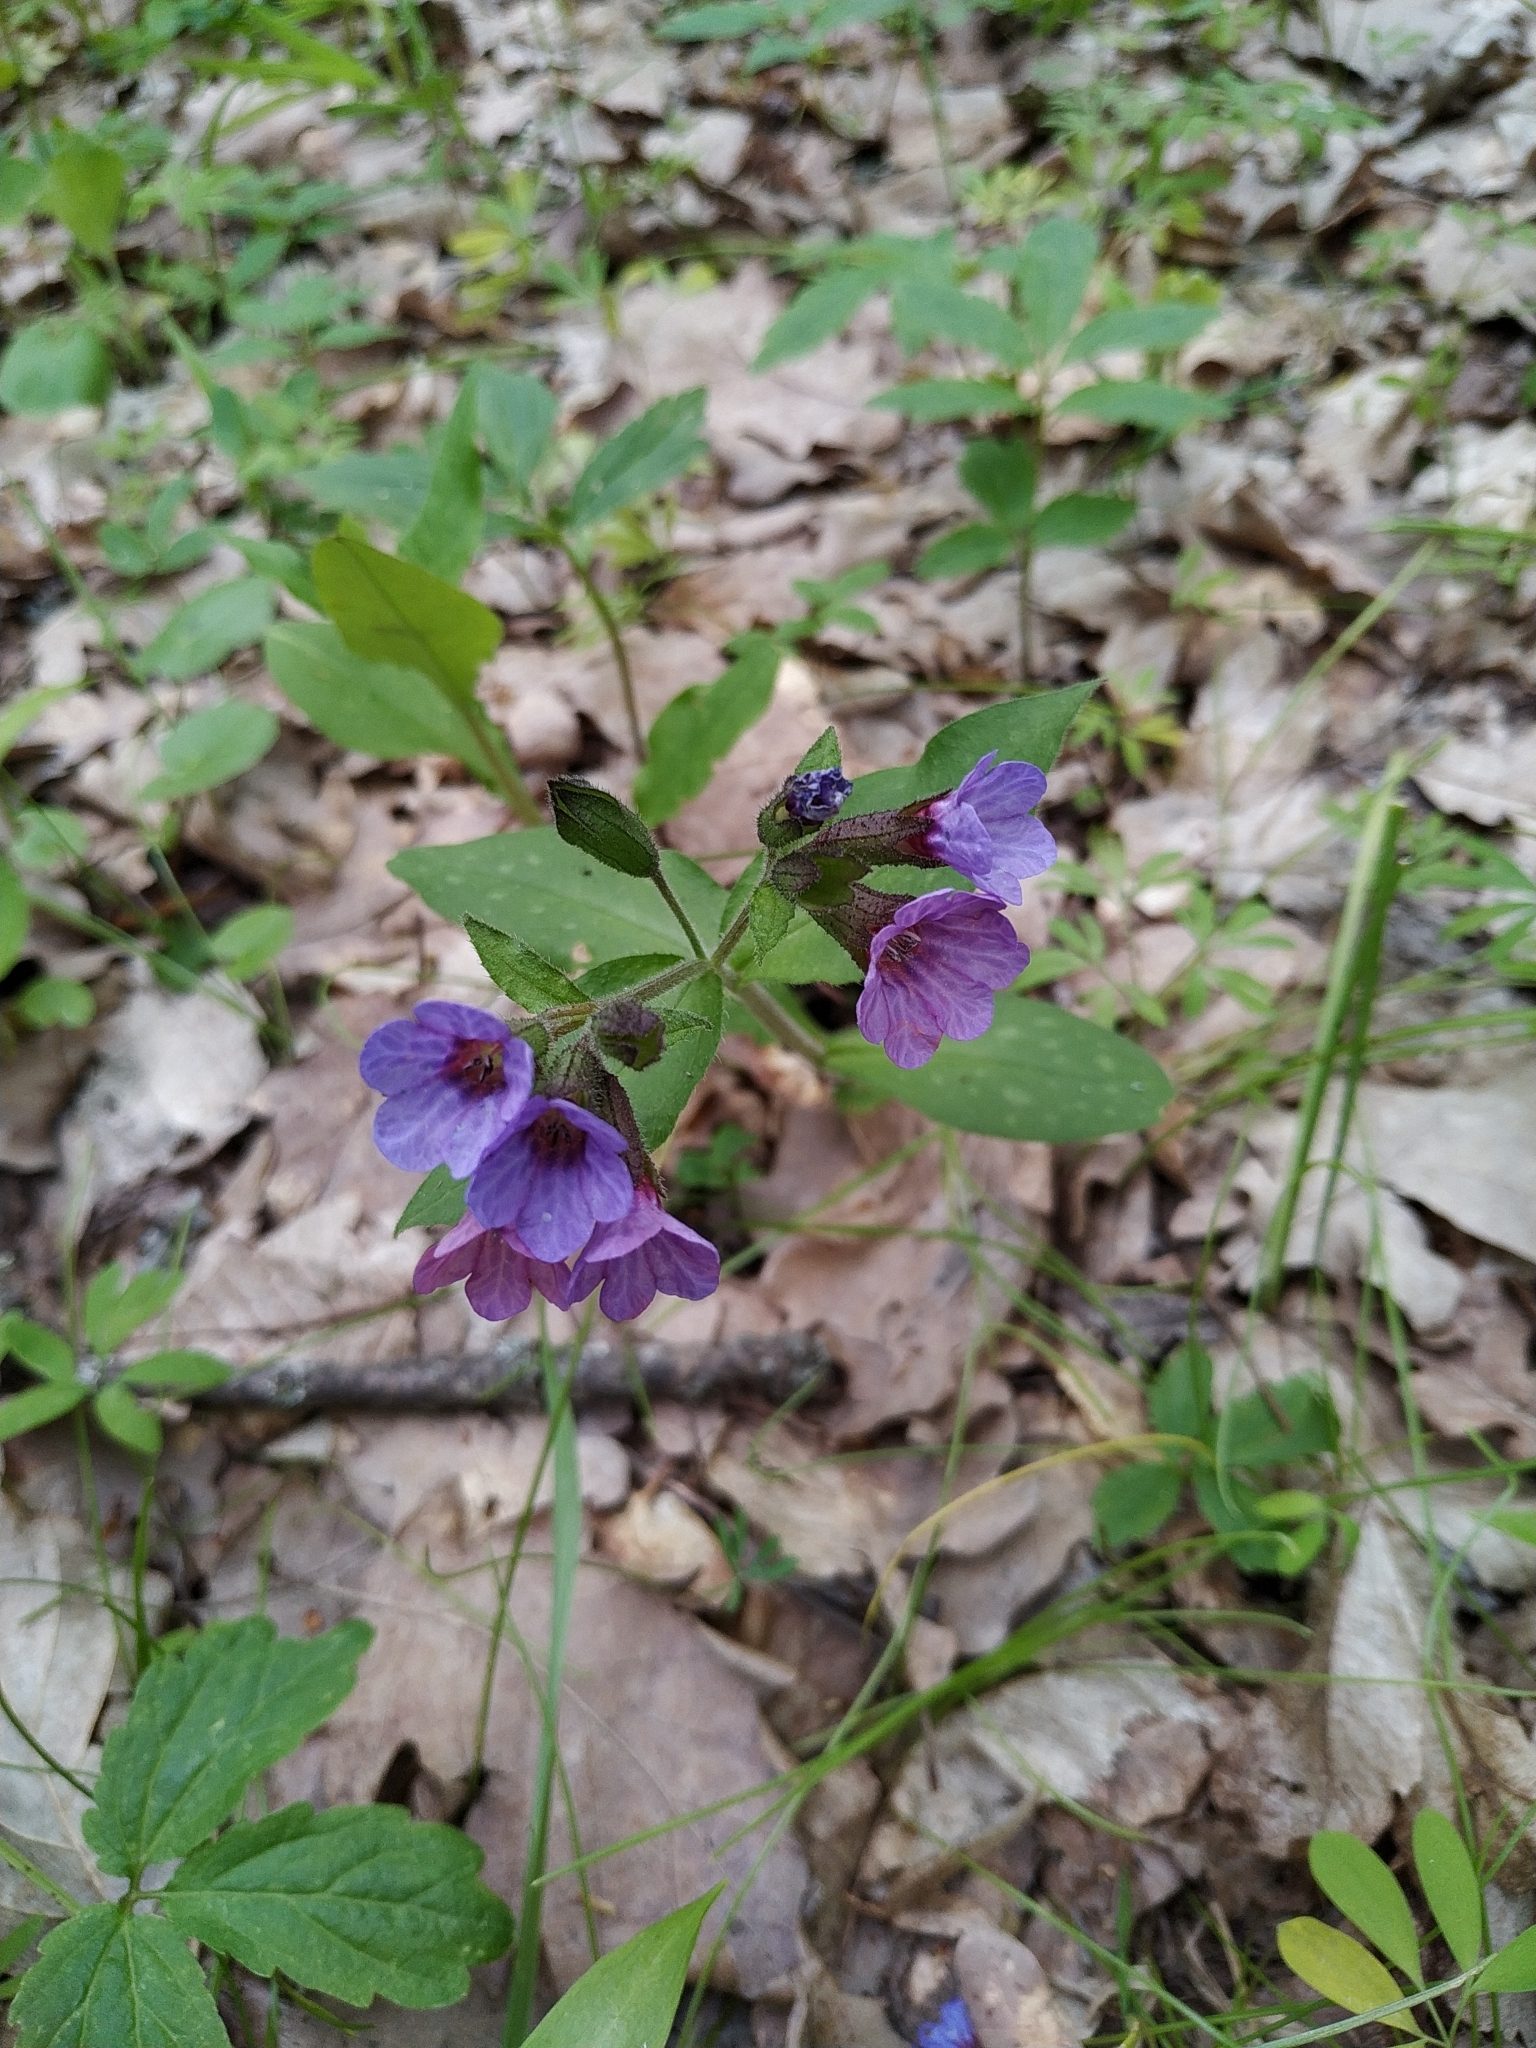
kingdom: Plantae
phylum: Tracheophyta
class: Magnoliopsida
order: Boraginales
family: Boraginaceae
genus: Pulmonaria
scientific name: Pulmonaria obscura
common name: Suffolk lungwort
